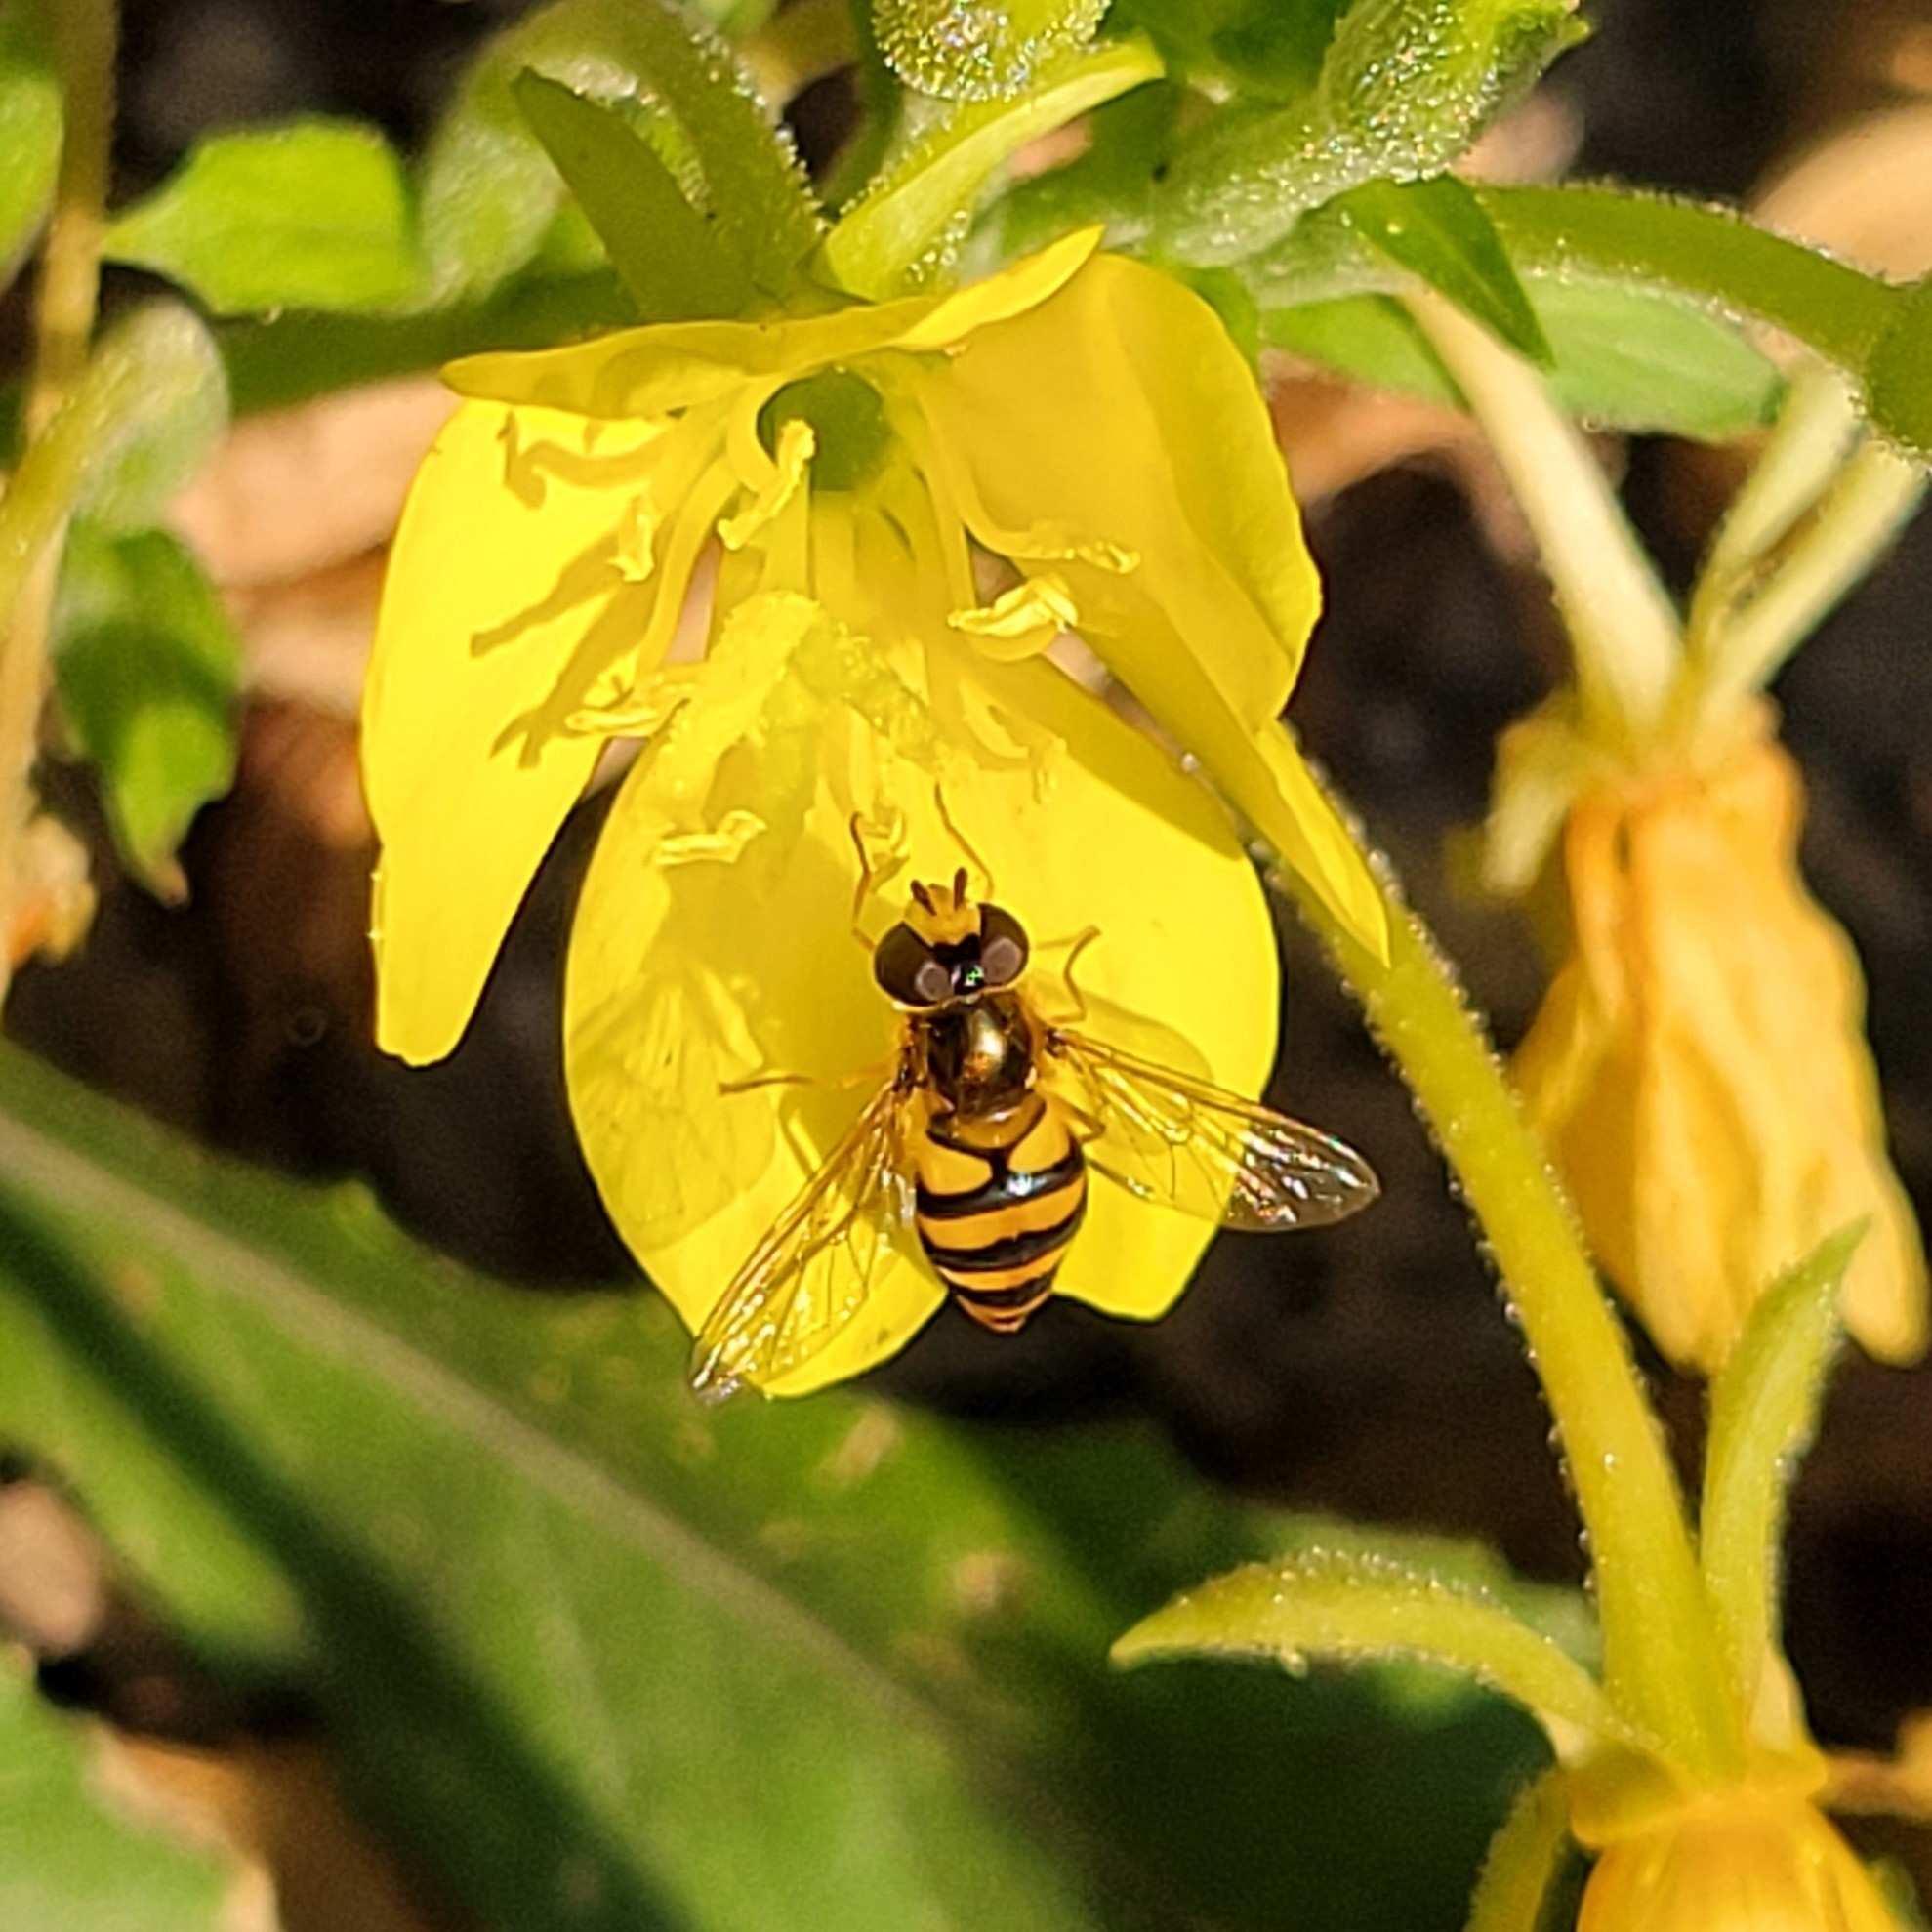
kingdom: Animalia
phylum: Arthropoda
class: Insecta
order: Diptera
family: Syrphidae
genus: Eupeodes
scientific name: Eupeodes latifasciatus
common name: Variable aphideater
